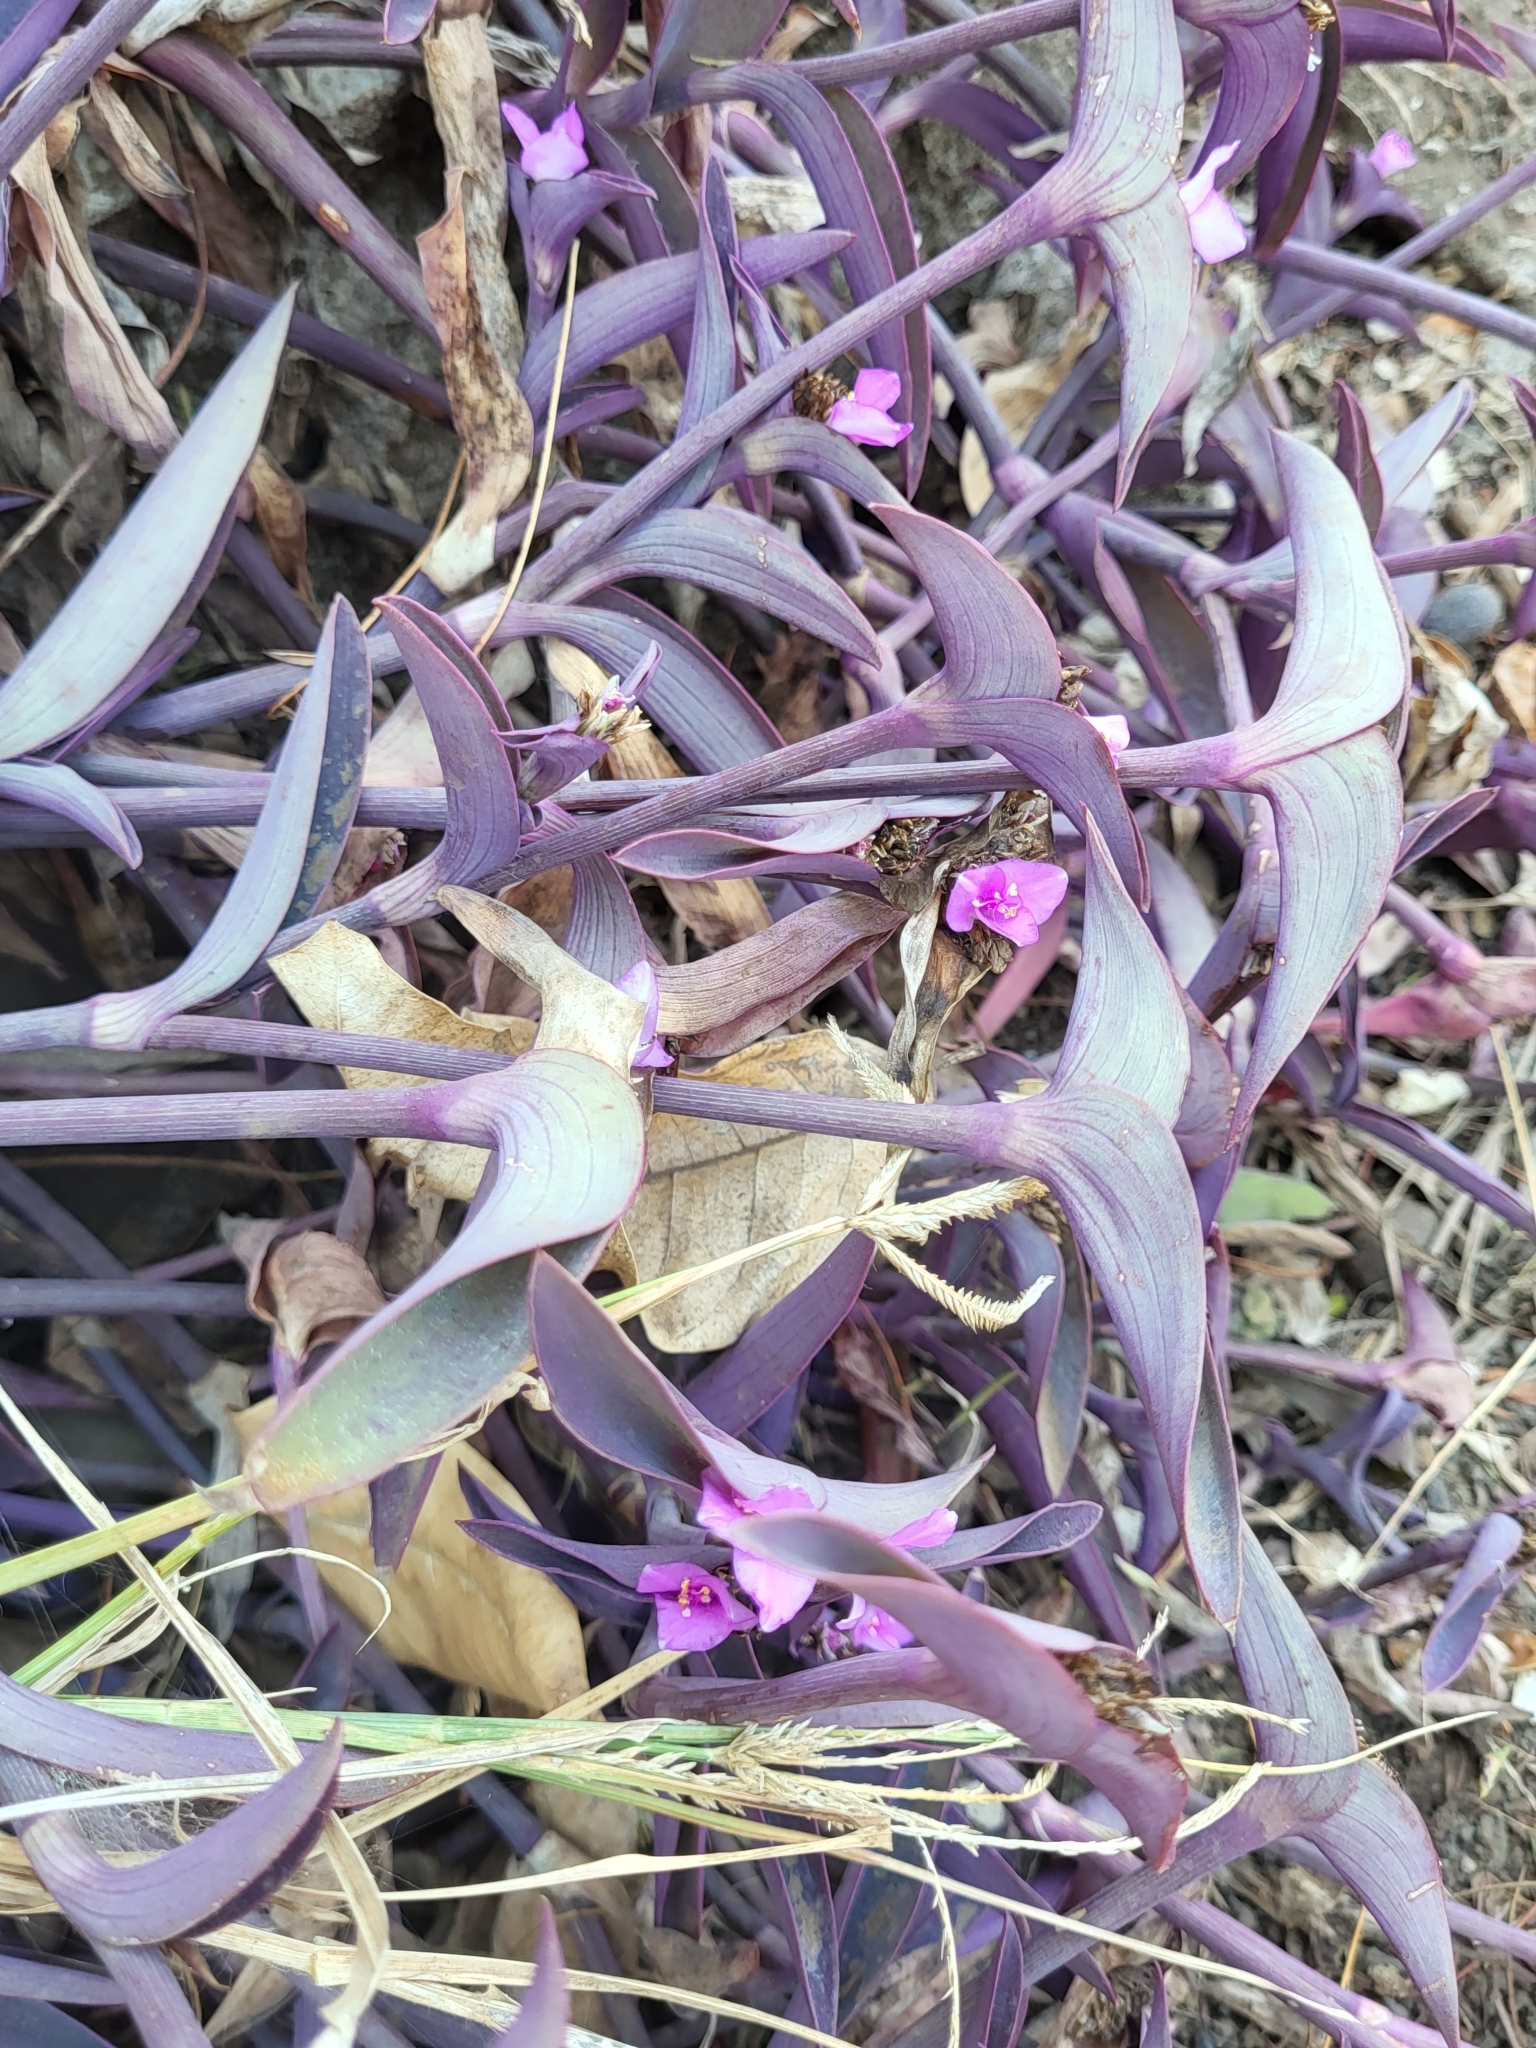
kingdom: Plantae
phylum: Tracheophyta
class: Liliopsida
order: Commelinales
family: Commelinaceae
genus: Tradescantia
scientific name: Tradescantia pallida
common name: Purpleheart
